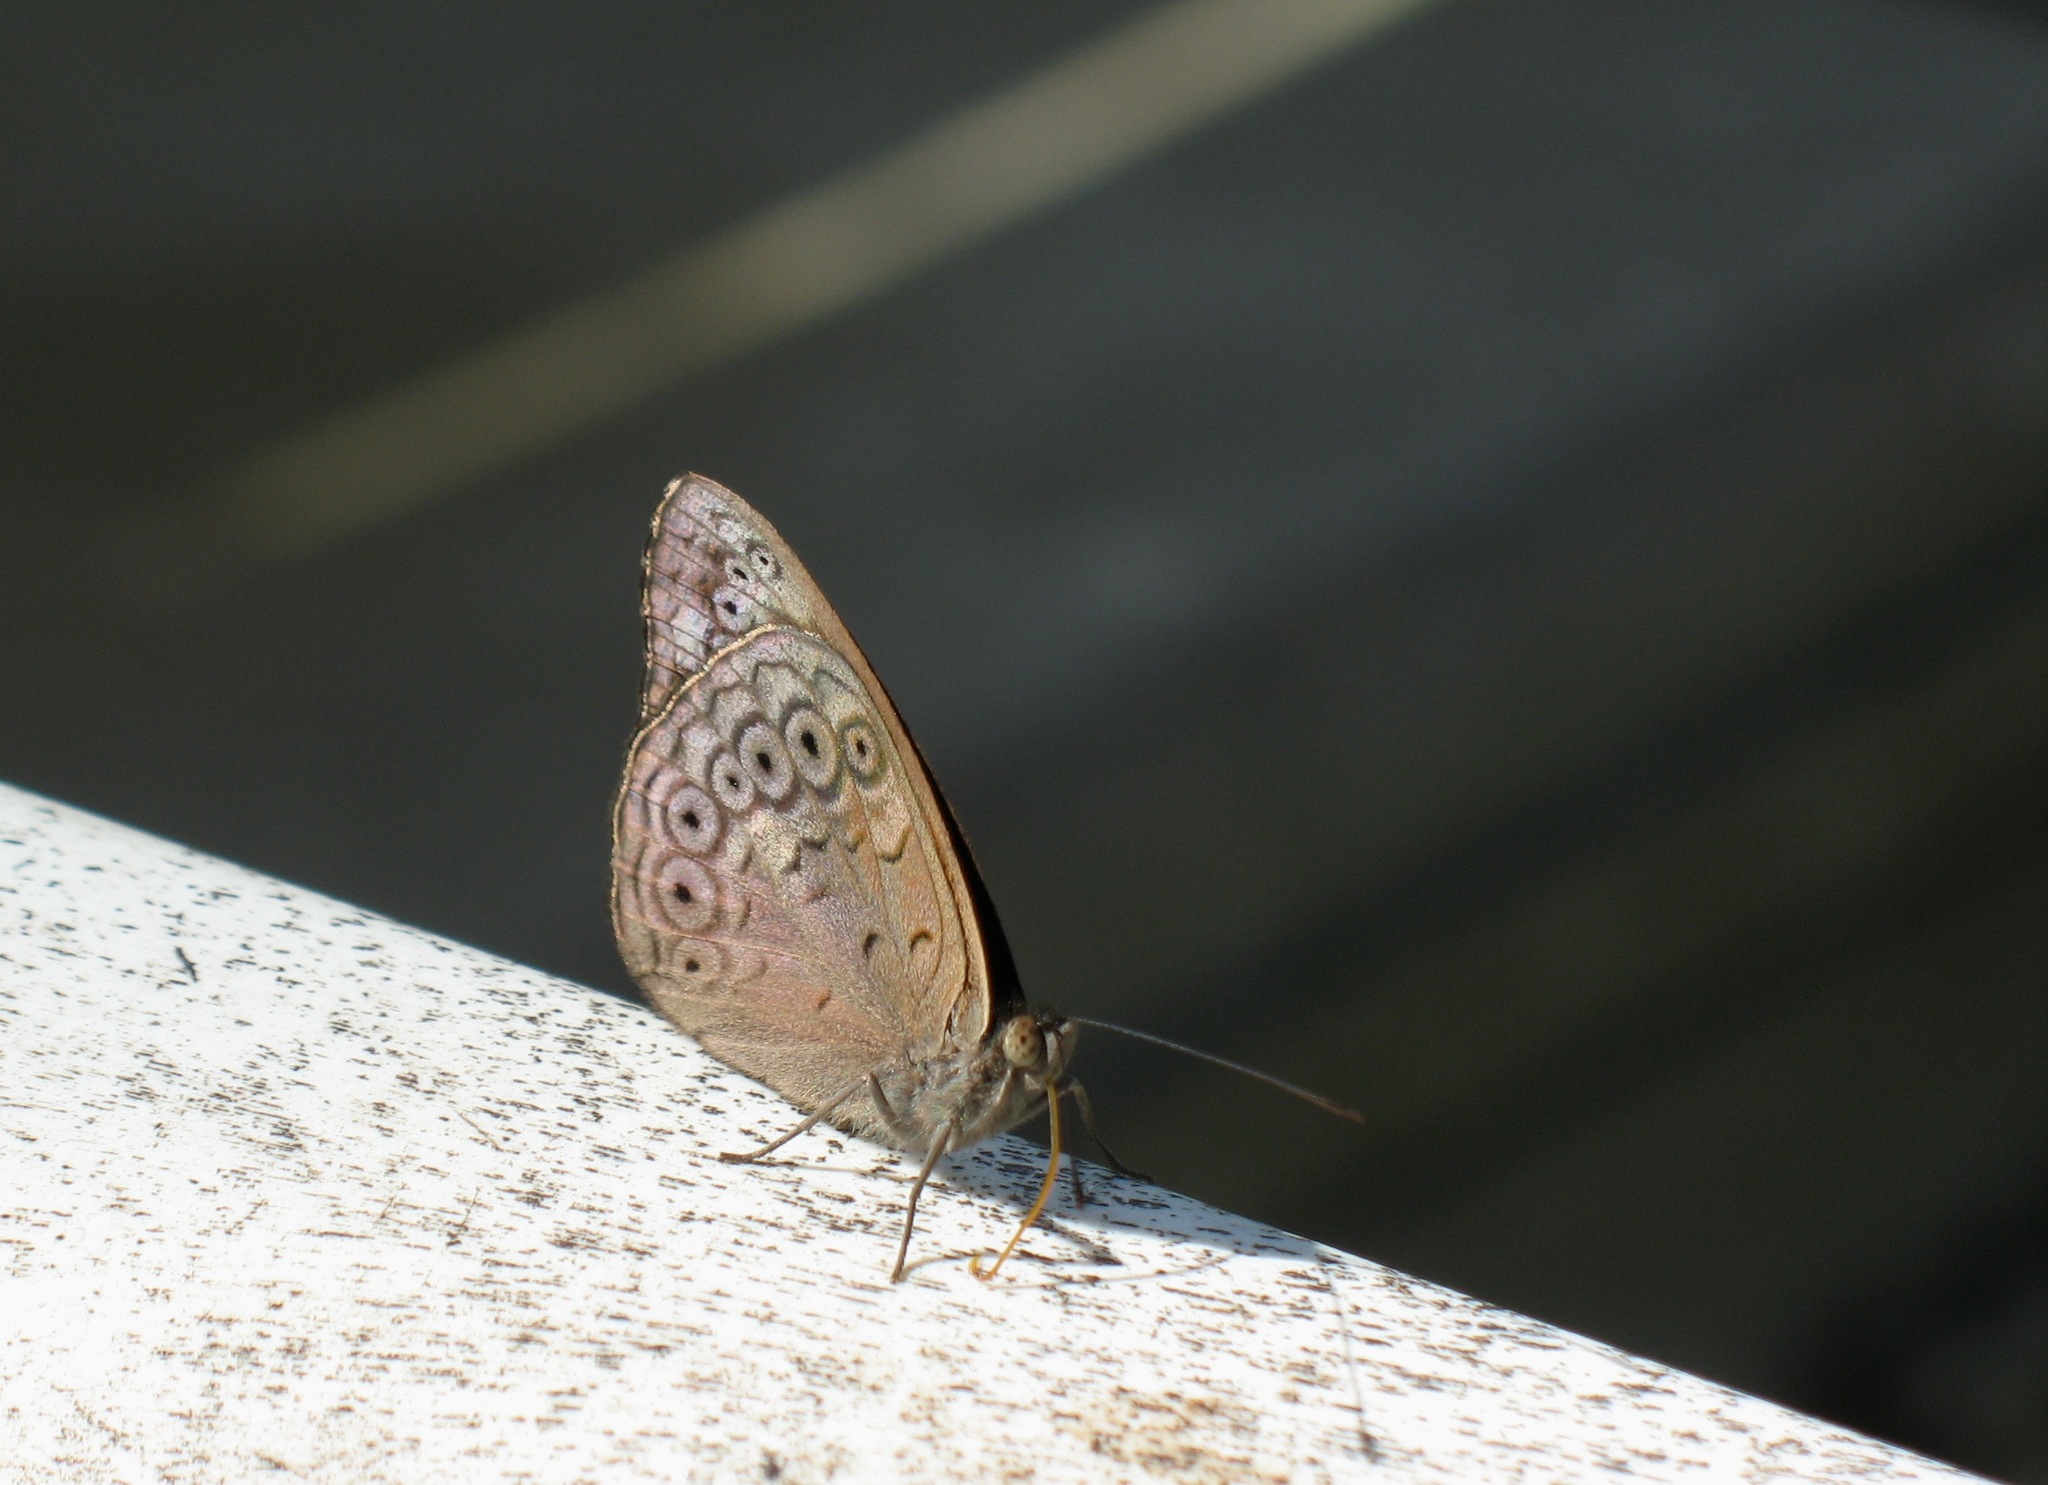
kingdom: Animalia
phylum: Arthropoda
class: Insecta
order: Lepidoptera
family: Nymphalidae
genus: Asterope
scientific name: Asterope occidentalium
